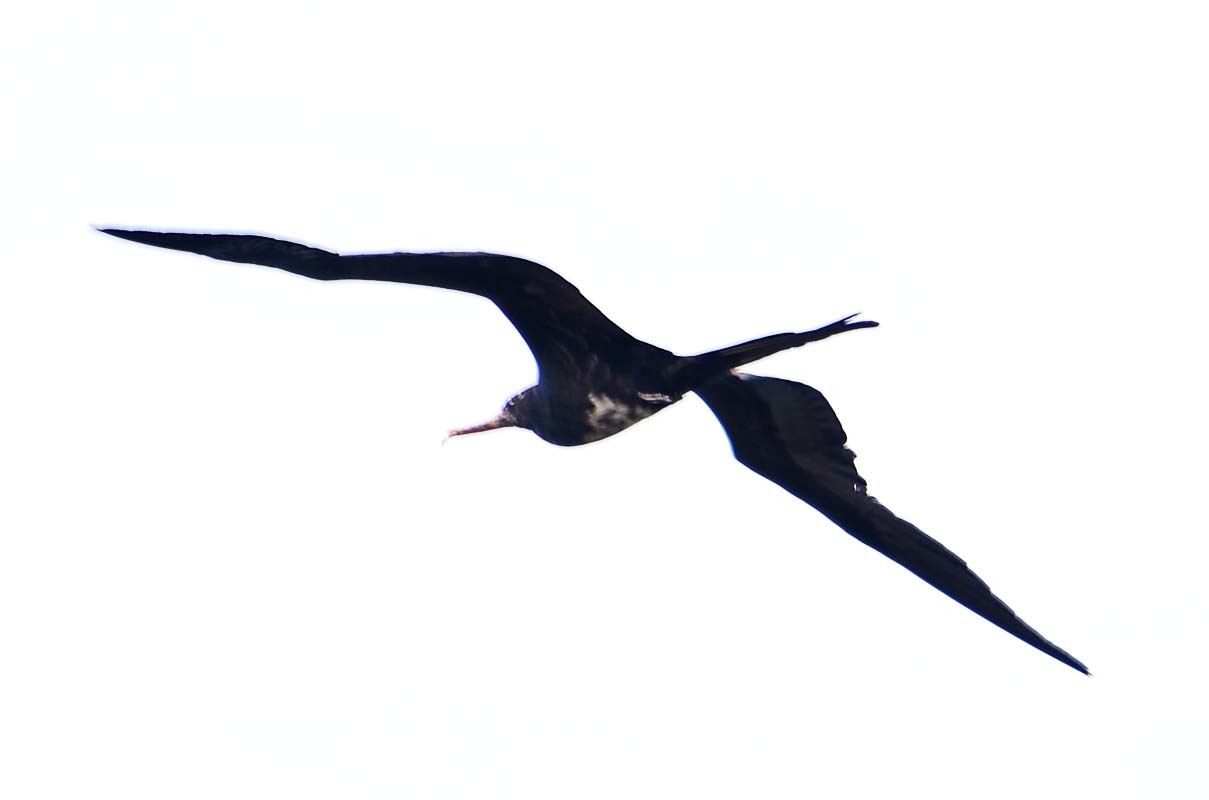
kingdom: Animalia
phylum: Chordata
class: Aves
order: Suliformes
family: Fregatidae
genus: Fregata
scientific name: Fregata magnificens
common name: Magnificent frigatebird
